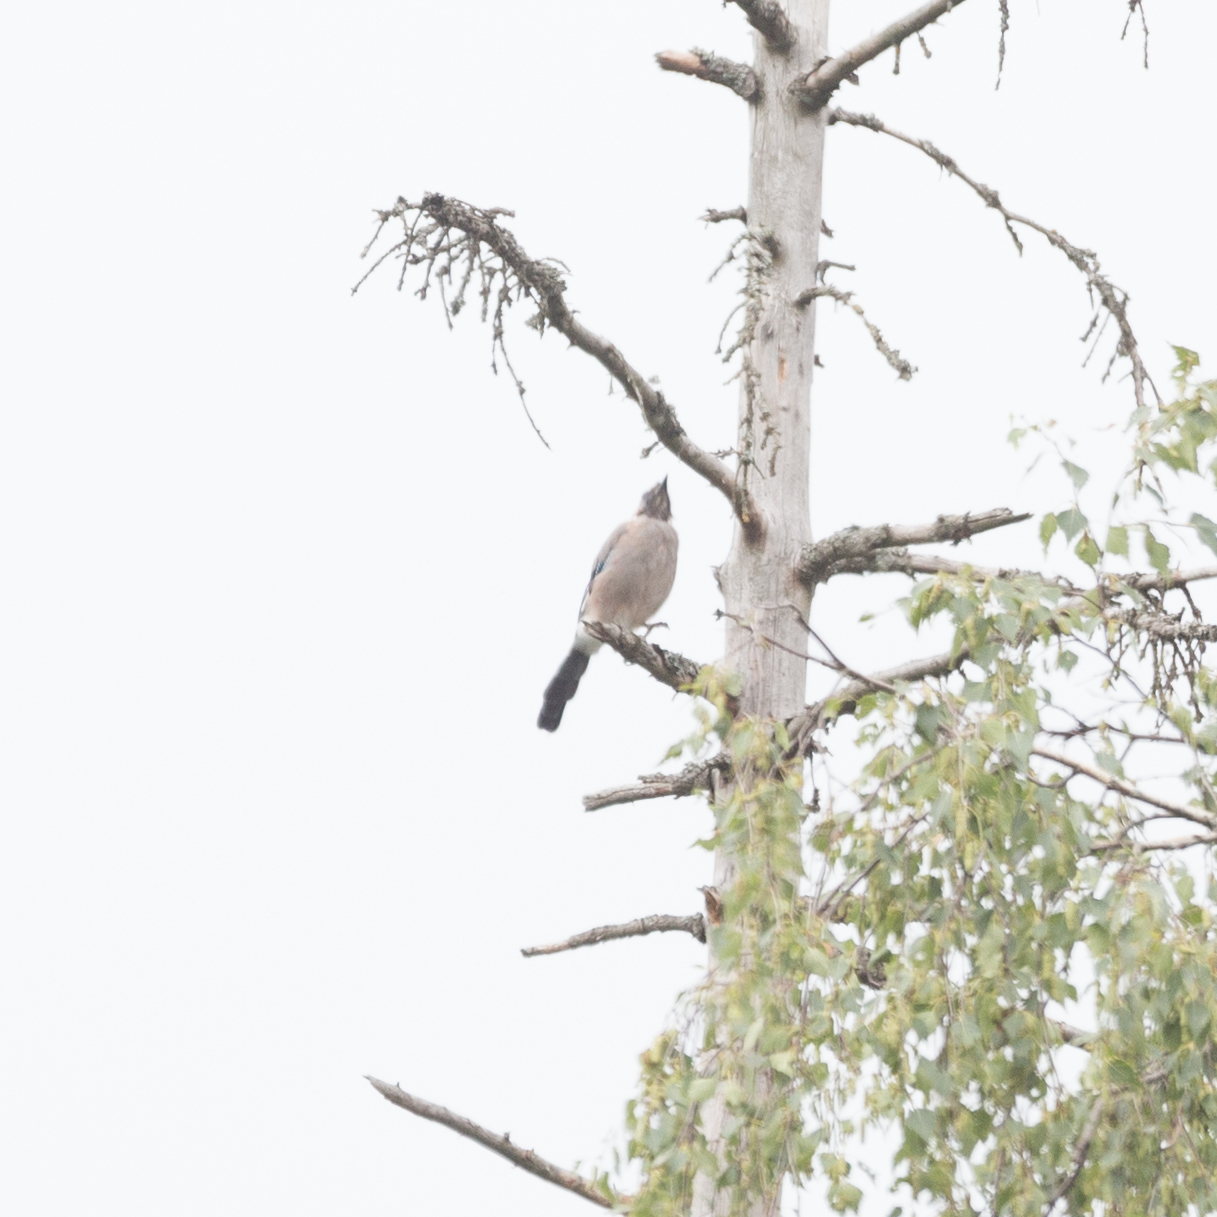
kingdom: Animalia
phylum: Chordata
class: Aves
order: Passeriformes
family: Corvidae
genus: Garrulus
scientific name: Garrulus glandarius
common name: Eurasian jay
